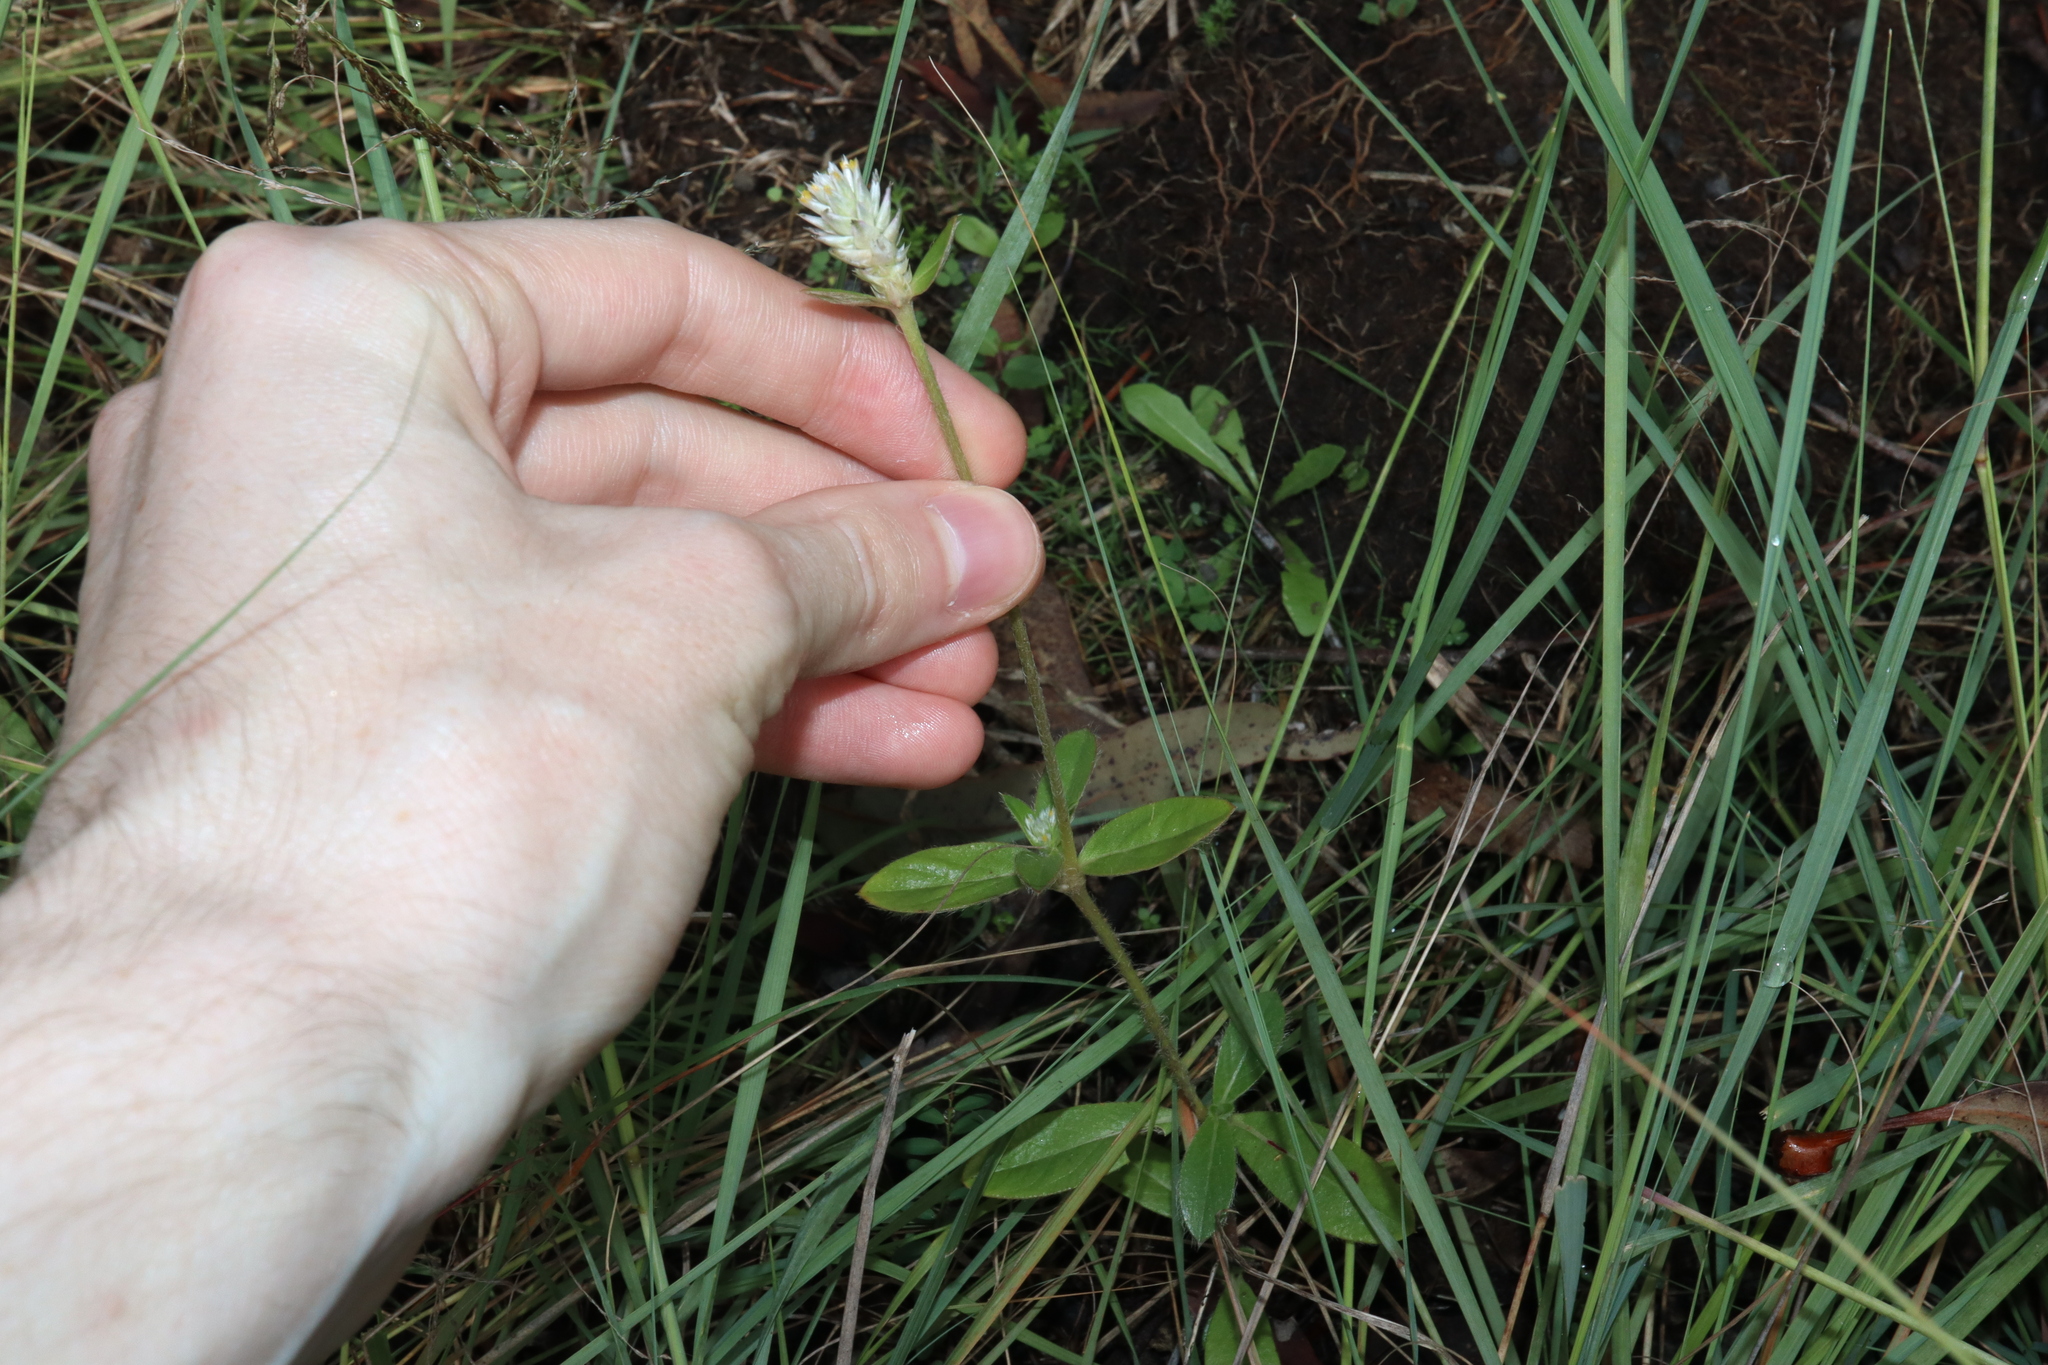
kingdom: Plantae
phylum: Tracheophyta
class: Magnoliopsida
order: Caryophyllales
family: Amaranthaceae
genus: Gomphrena
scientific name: Gomphrena celosioides
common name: Gomphrena-weed
